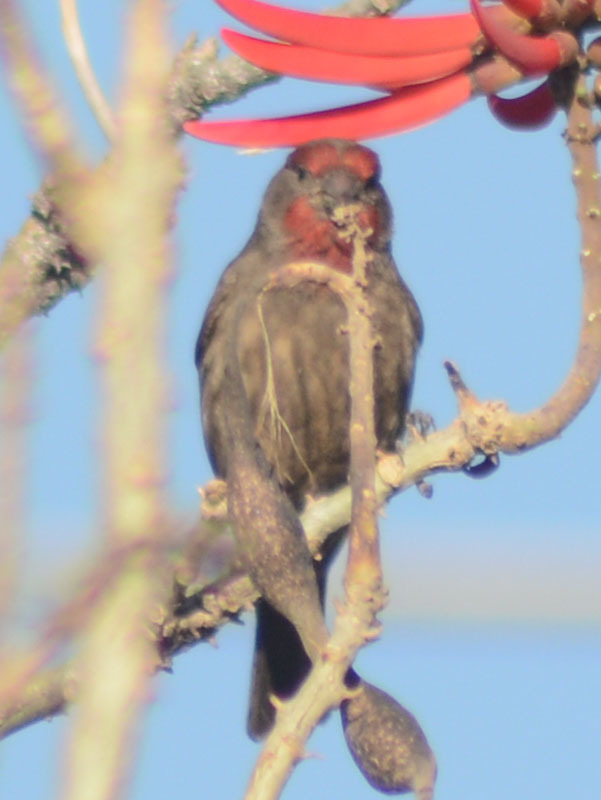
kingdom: Animalia
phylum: Chordata
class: Aves
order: Passeriformes
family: Fringillidae
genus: Haemorhous
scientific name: Haemorhous mexicanus
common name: House finch
